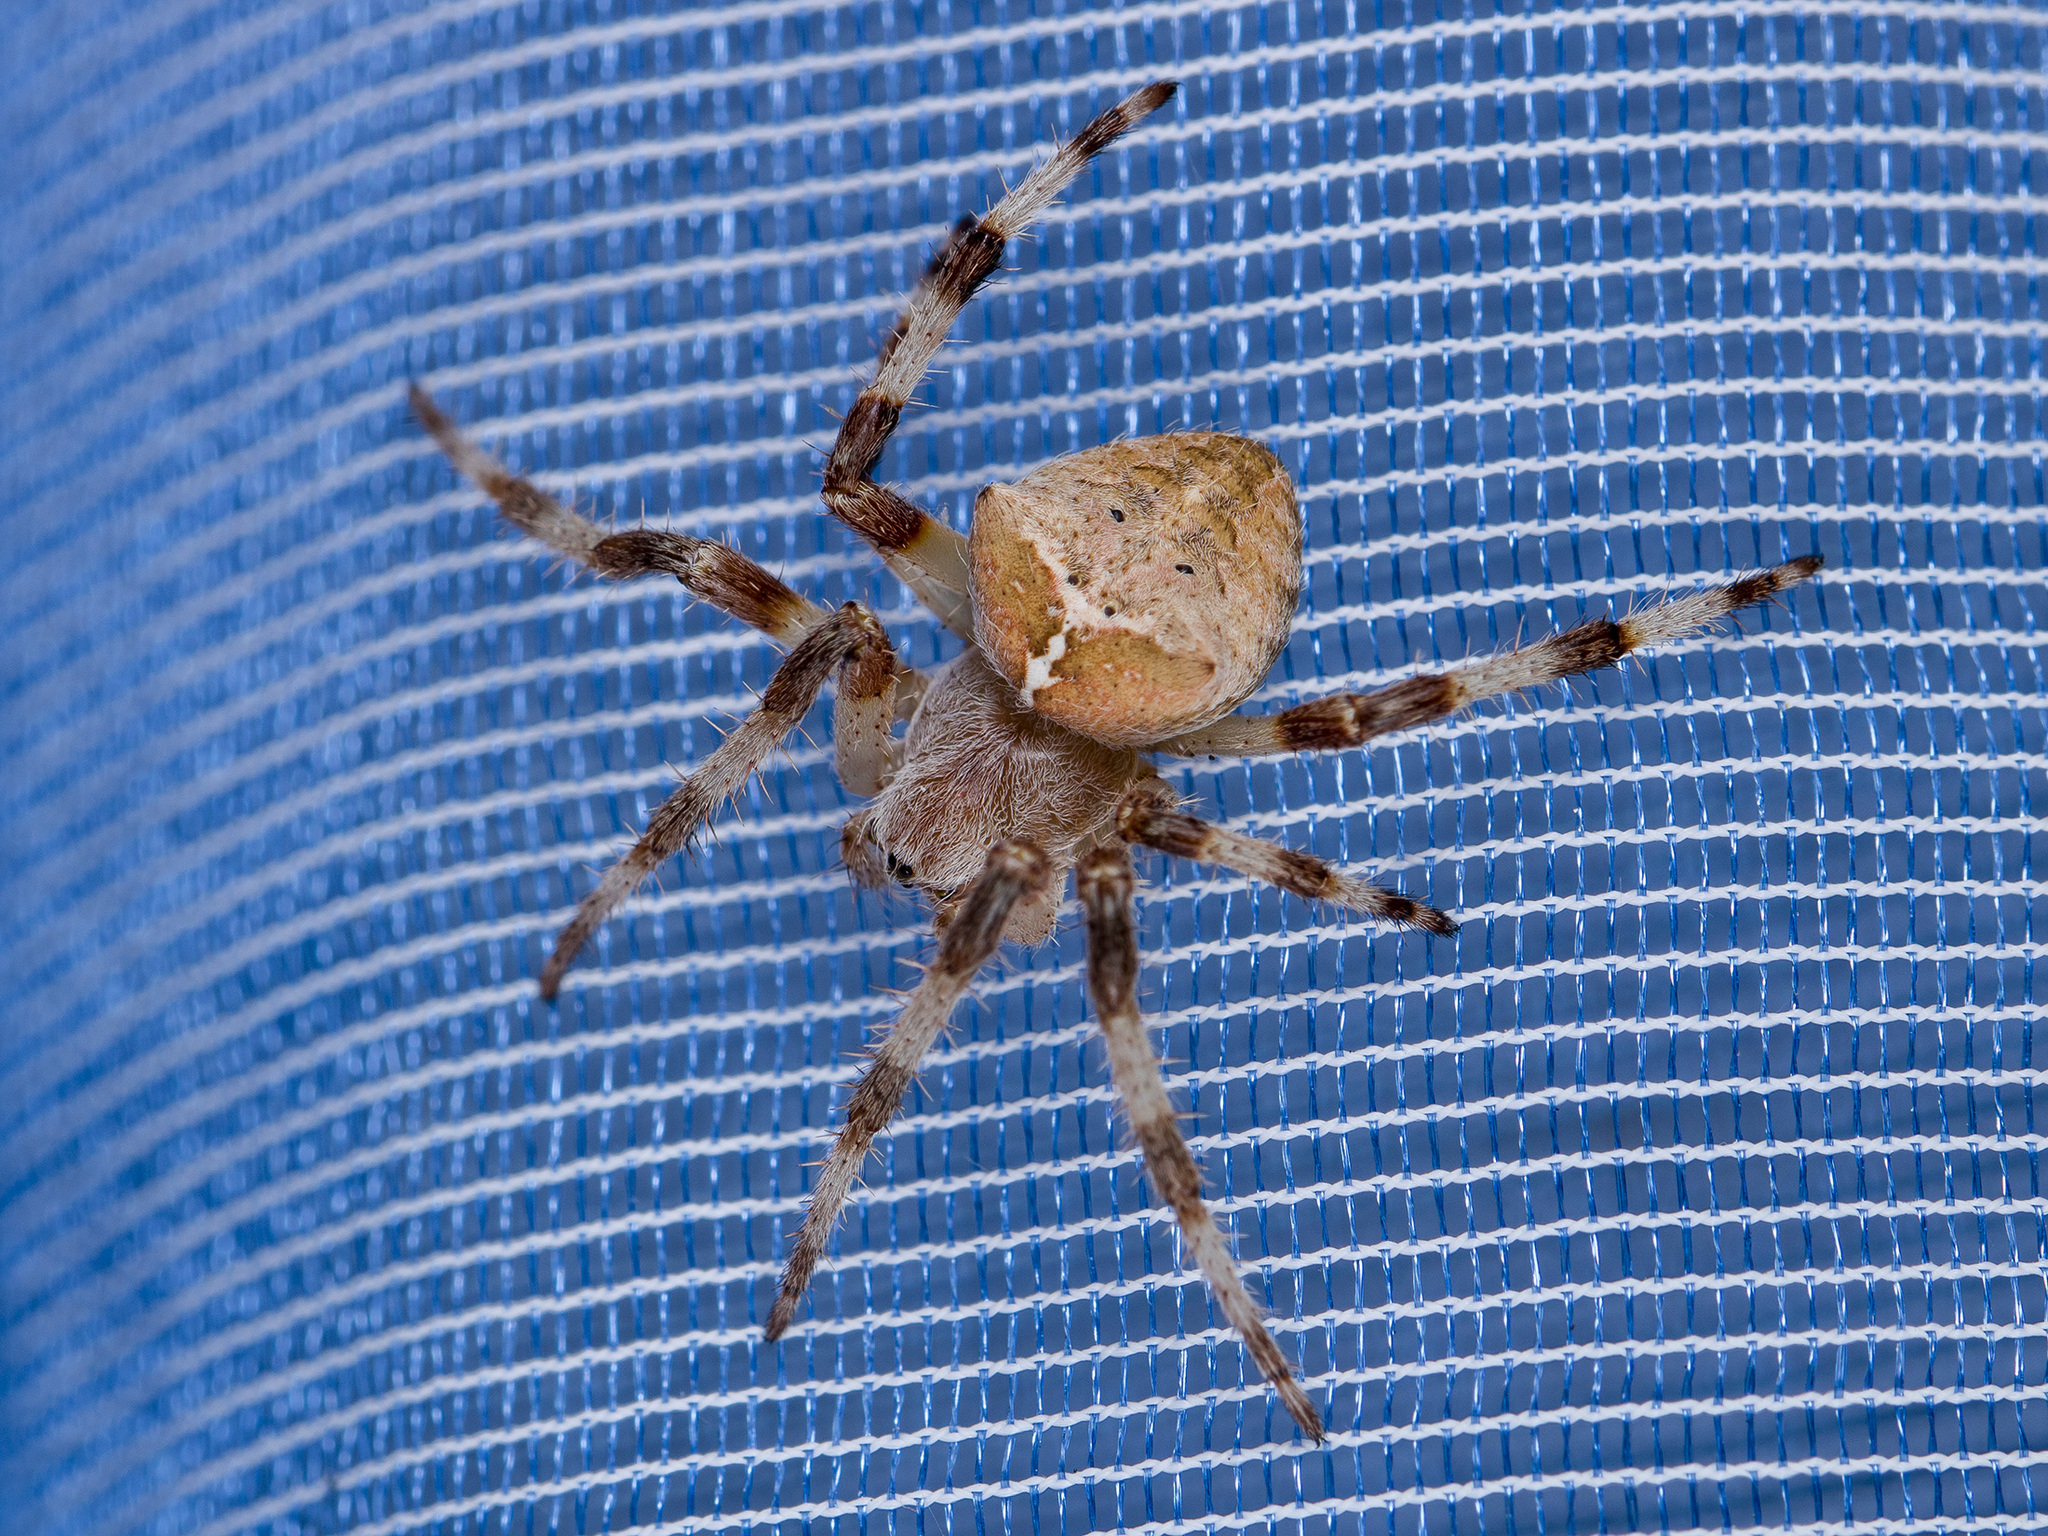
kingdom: Animalia
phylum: Arthropoda
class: Arachnida
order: Araneae
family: Araneidae
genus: Araneus
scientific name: Araneus tartaricus
